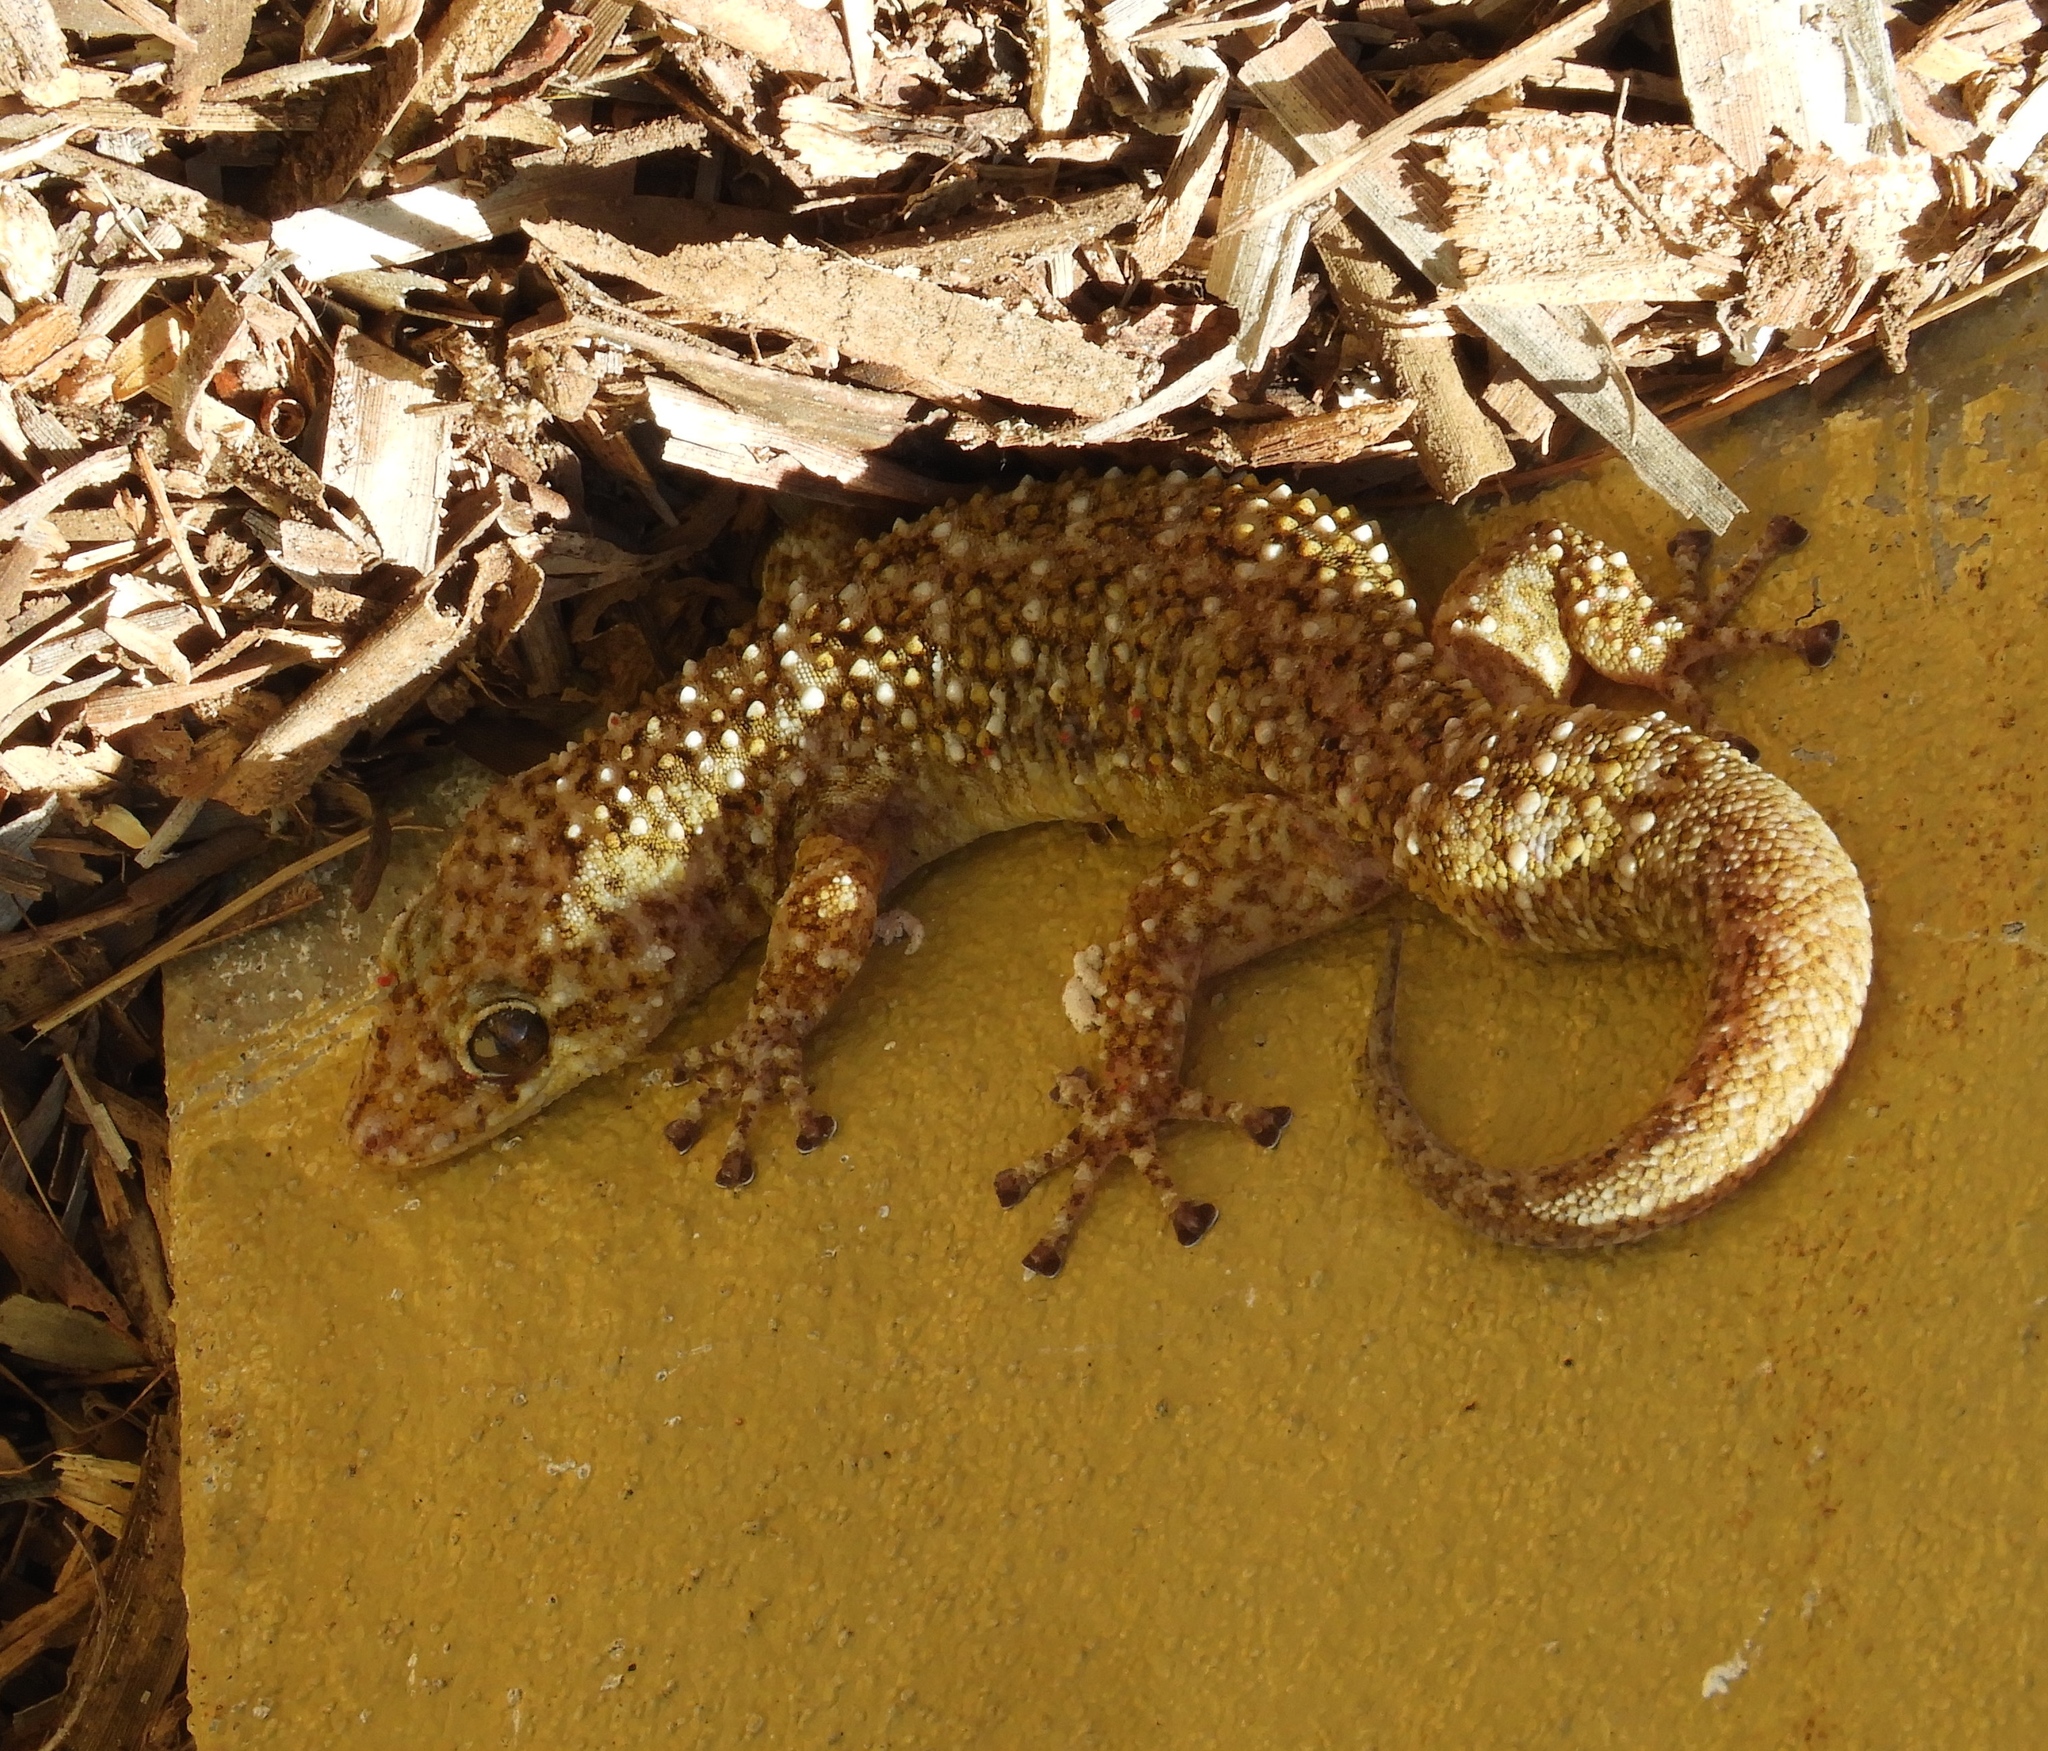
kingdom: Animalia
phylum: Chordata
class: Squamata
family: Phyllodactylidae
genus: Phyllodactylus
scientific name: Phyllodactylus tuberculosus
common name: Yellowbelly  gecko
